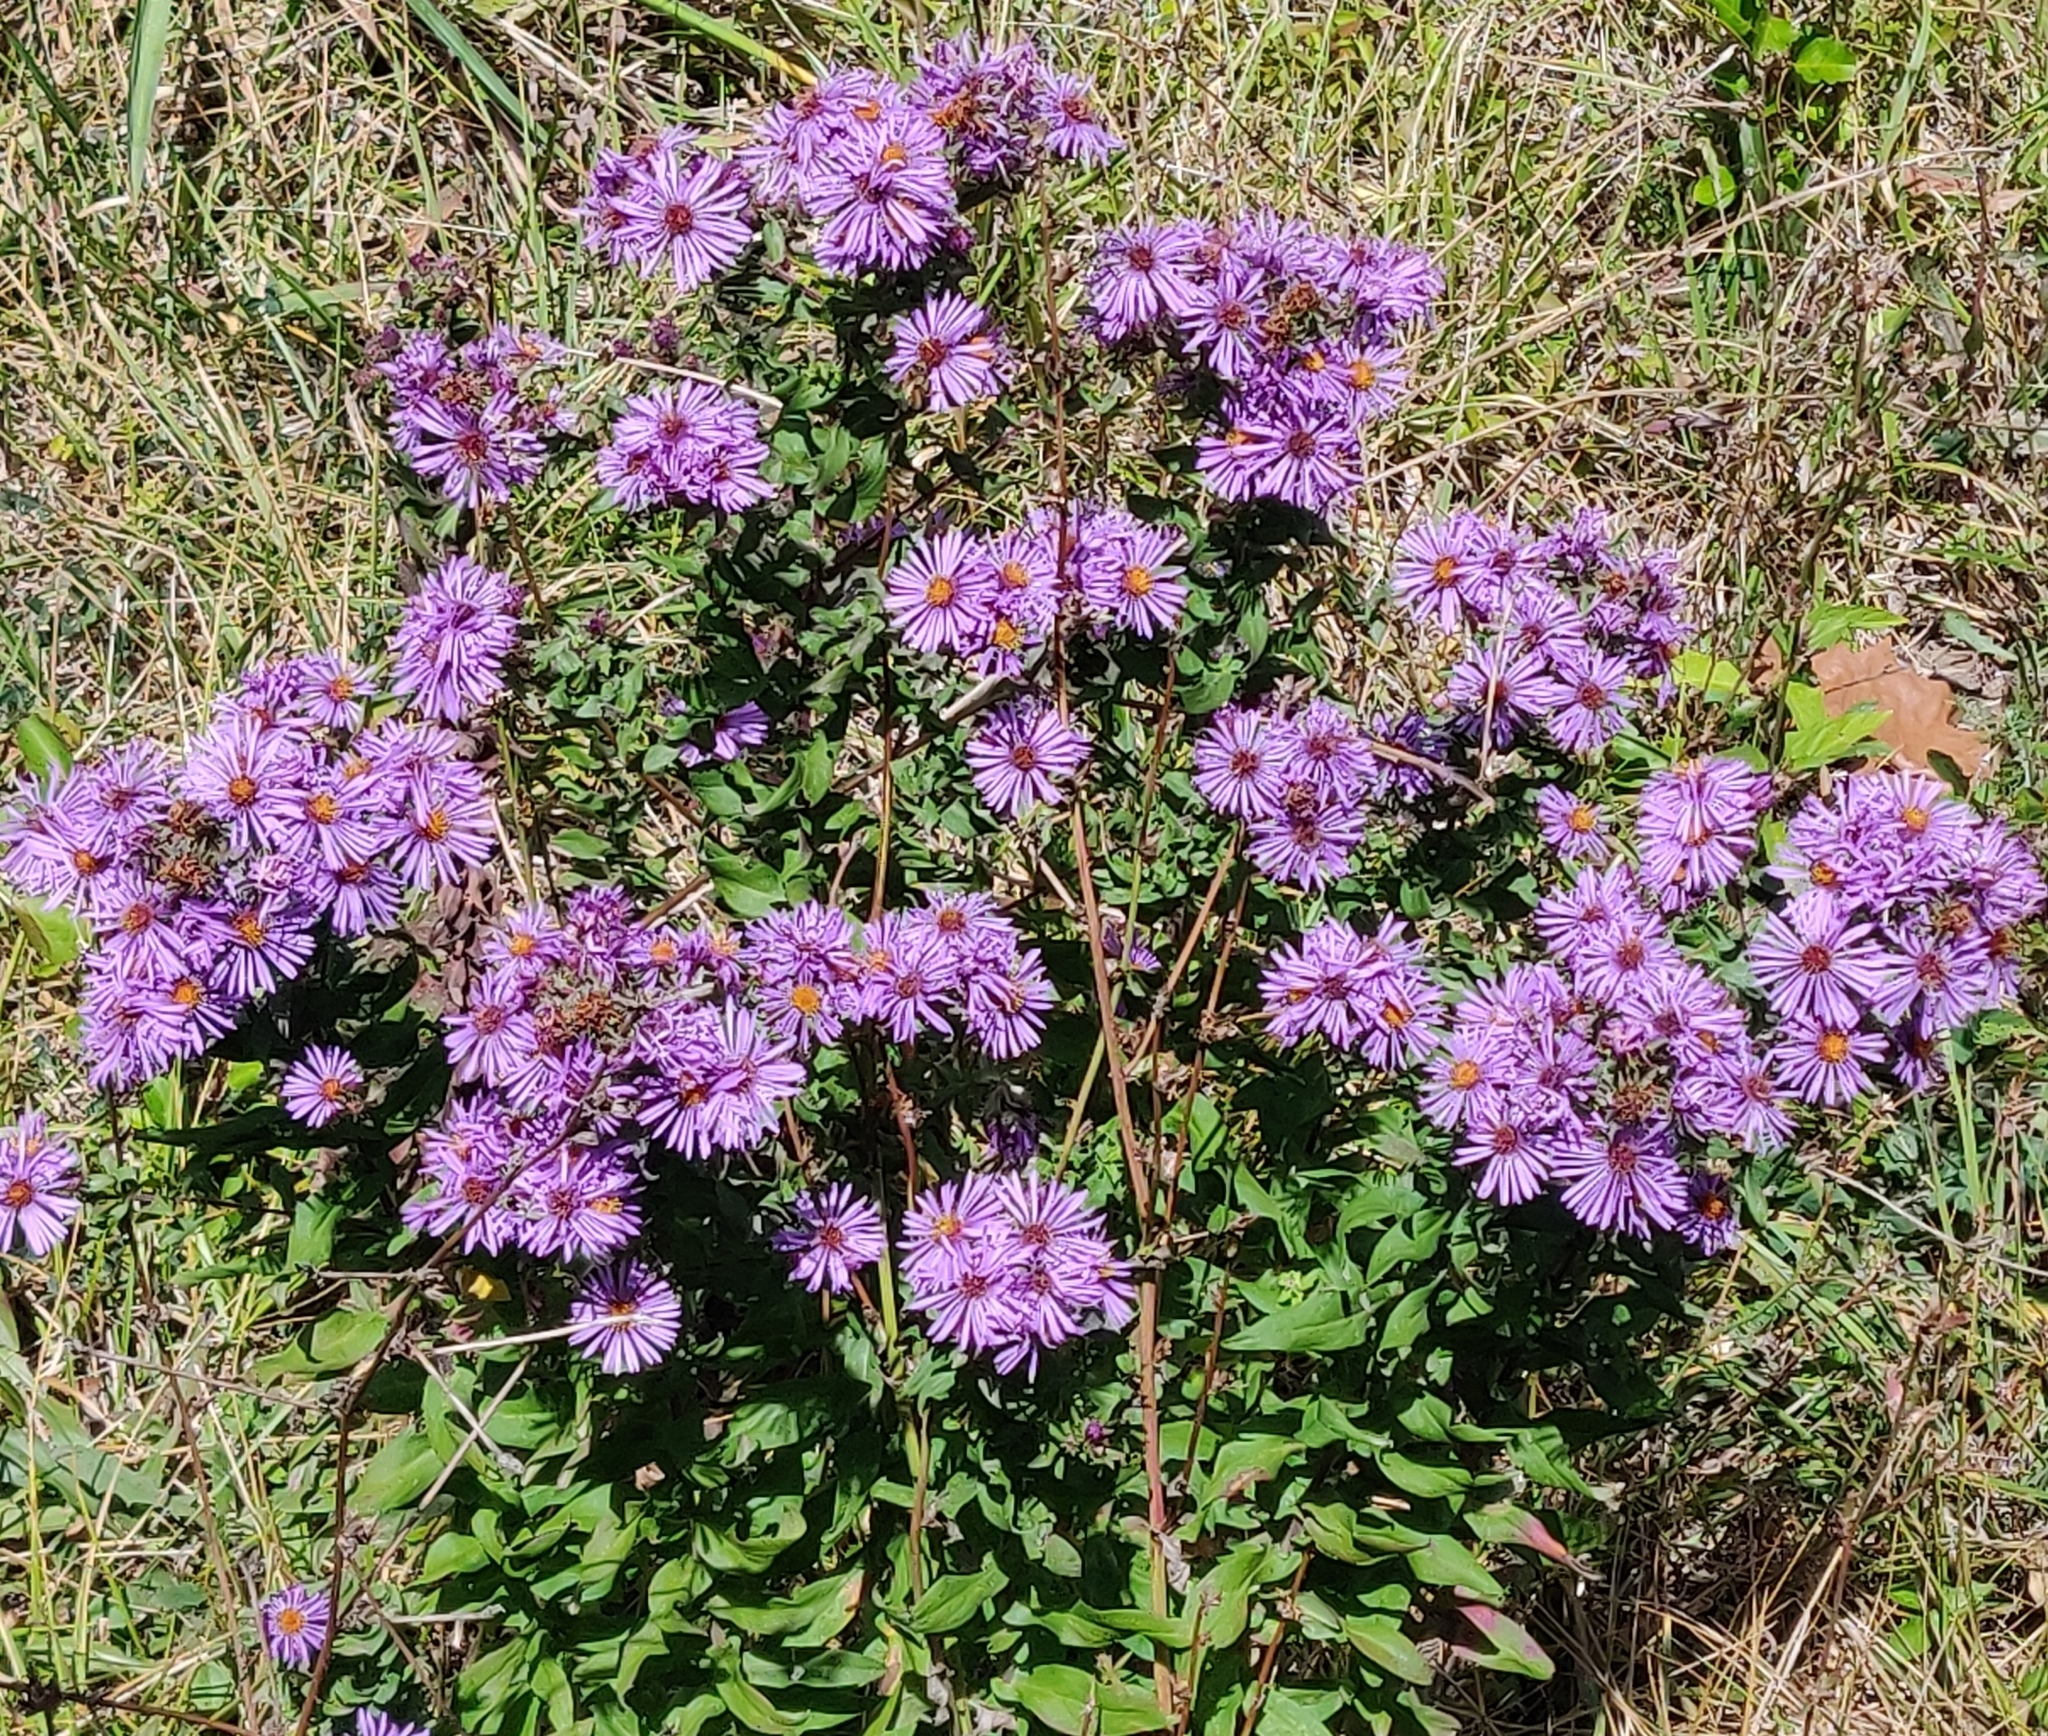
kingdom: Plantae
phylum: Tracheophyta
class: Magnoliopsida
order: Asterales
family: Asteraceae
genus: Symphyotrichum
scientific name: Symphyotrichum novae-angliae
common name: Michaelmas daisy
